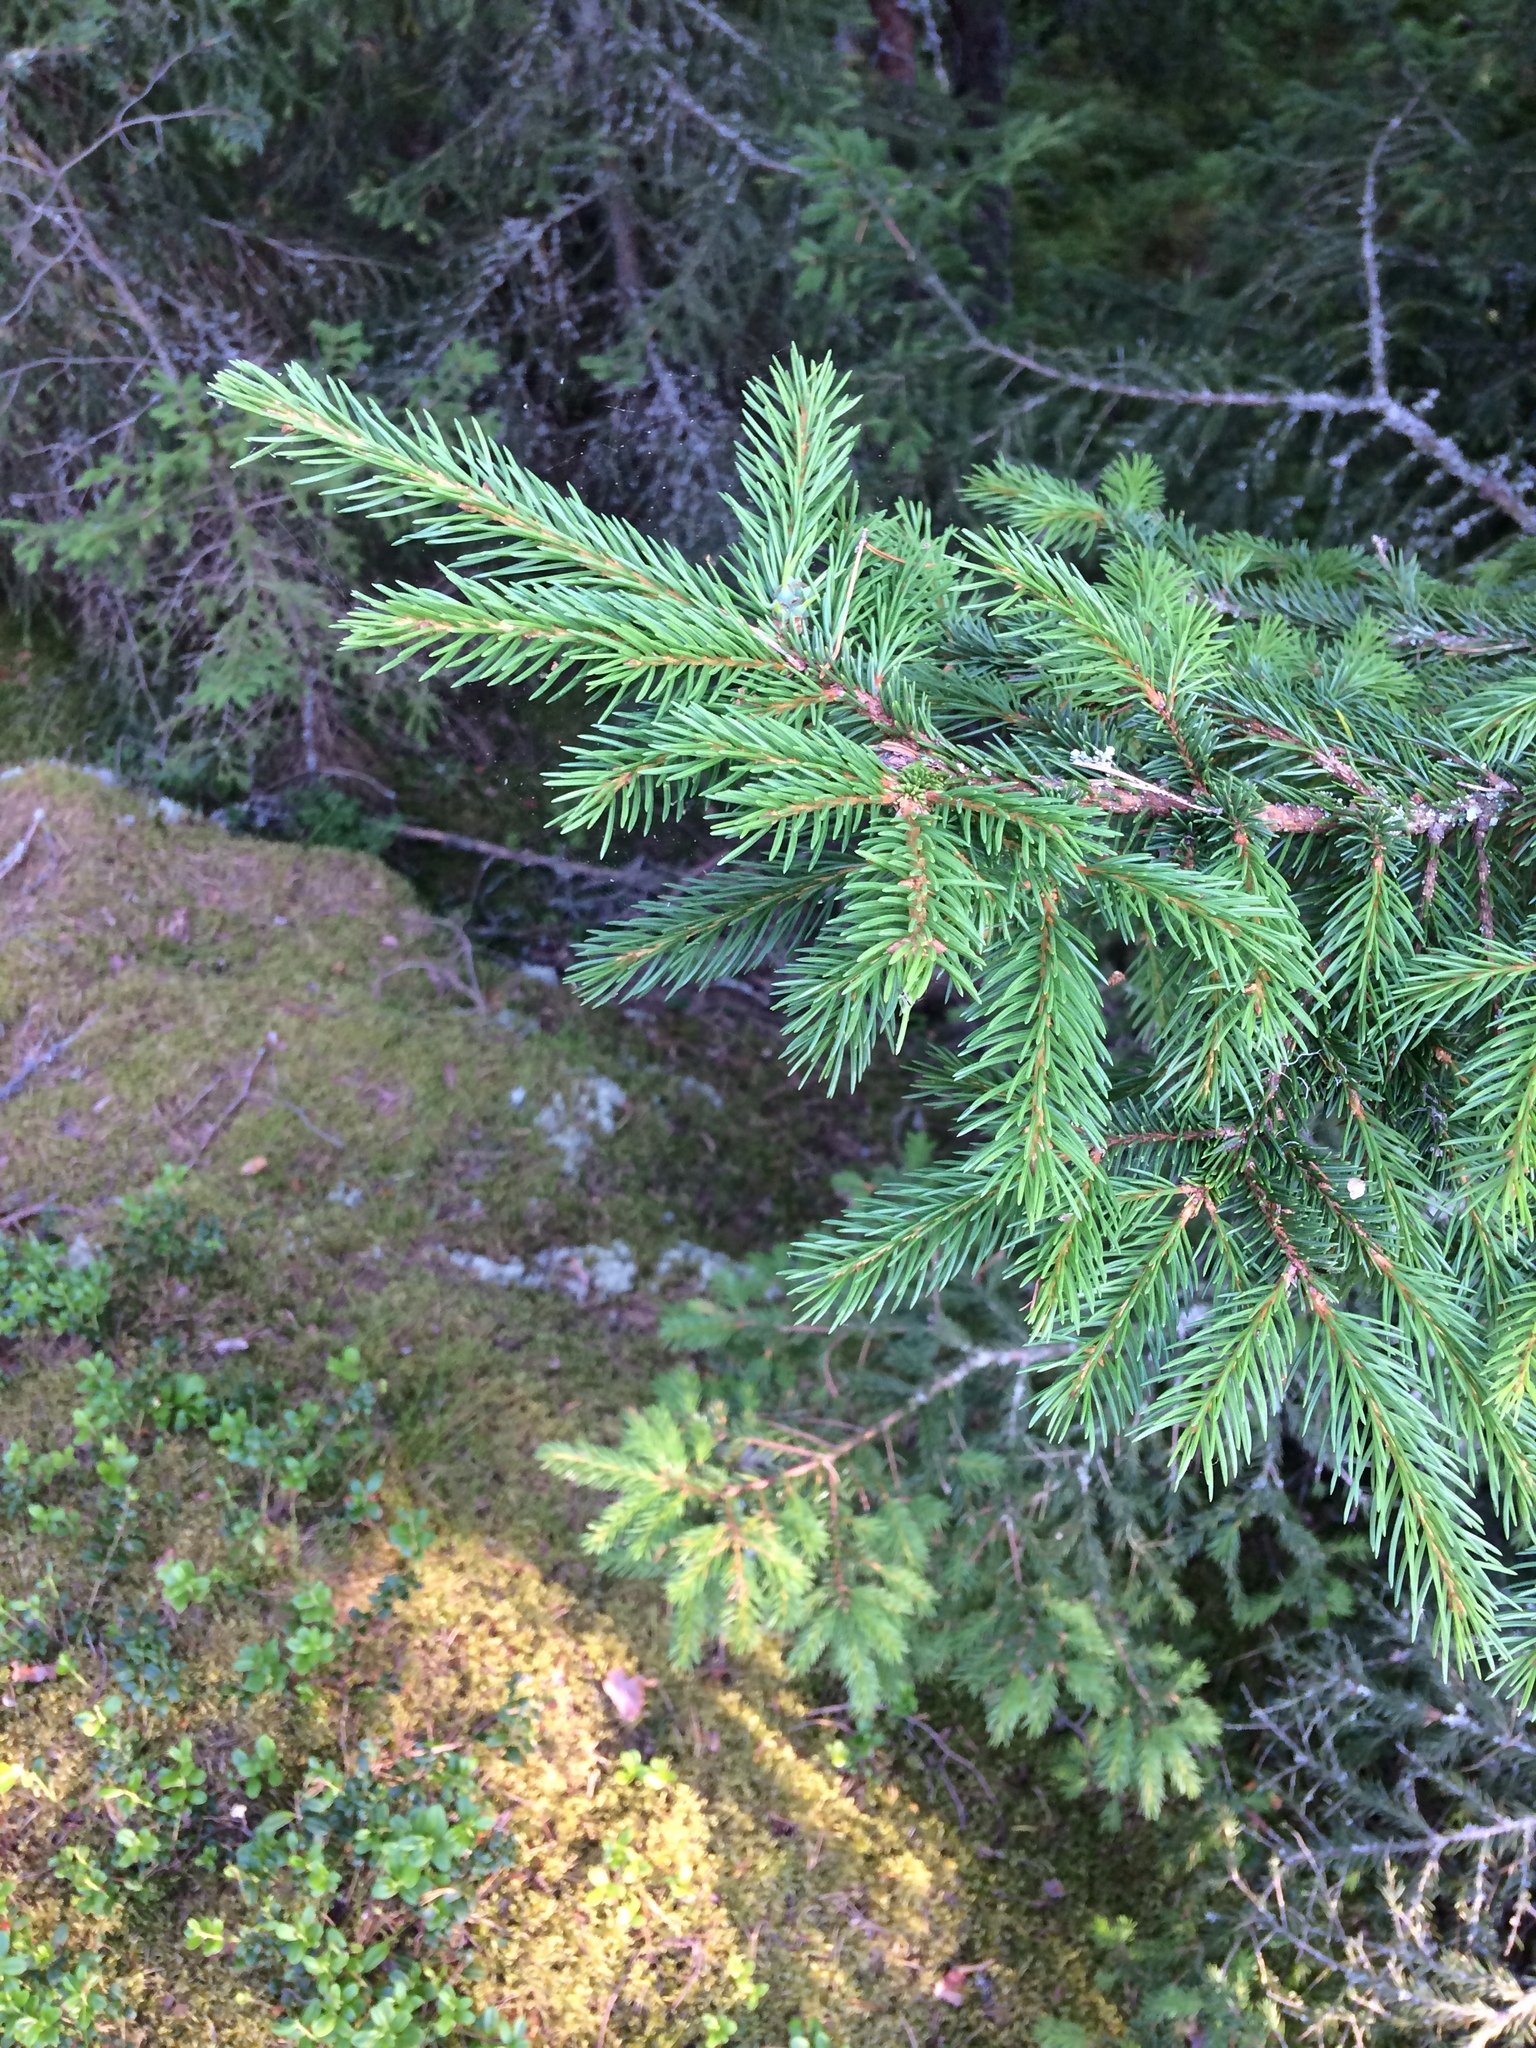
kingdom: Plantae
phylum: Tracheophyta
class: Pinopsida
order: Pinales
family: Pinaceae
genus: Picea
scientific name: Picea abies
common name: Norway spruce
